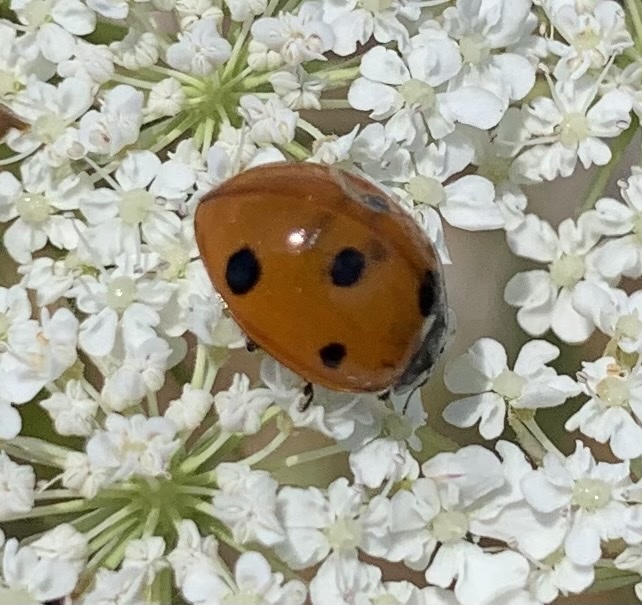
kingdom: Animalia
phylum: Arthropoda
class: Insecta
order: Coleoptera
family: Coccinellidae
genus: Coccinella
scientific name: Coccinella septempunctata
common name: Sevenspotted lady beetle
